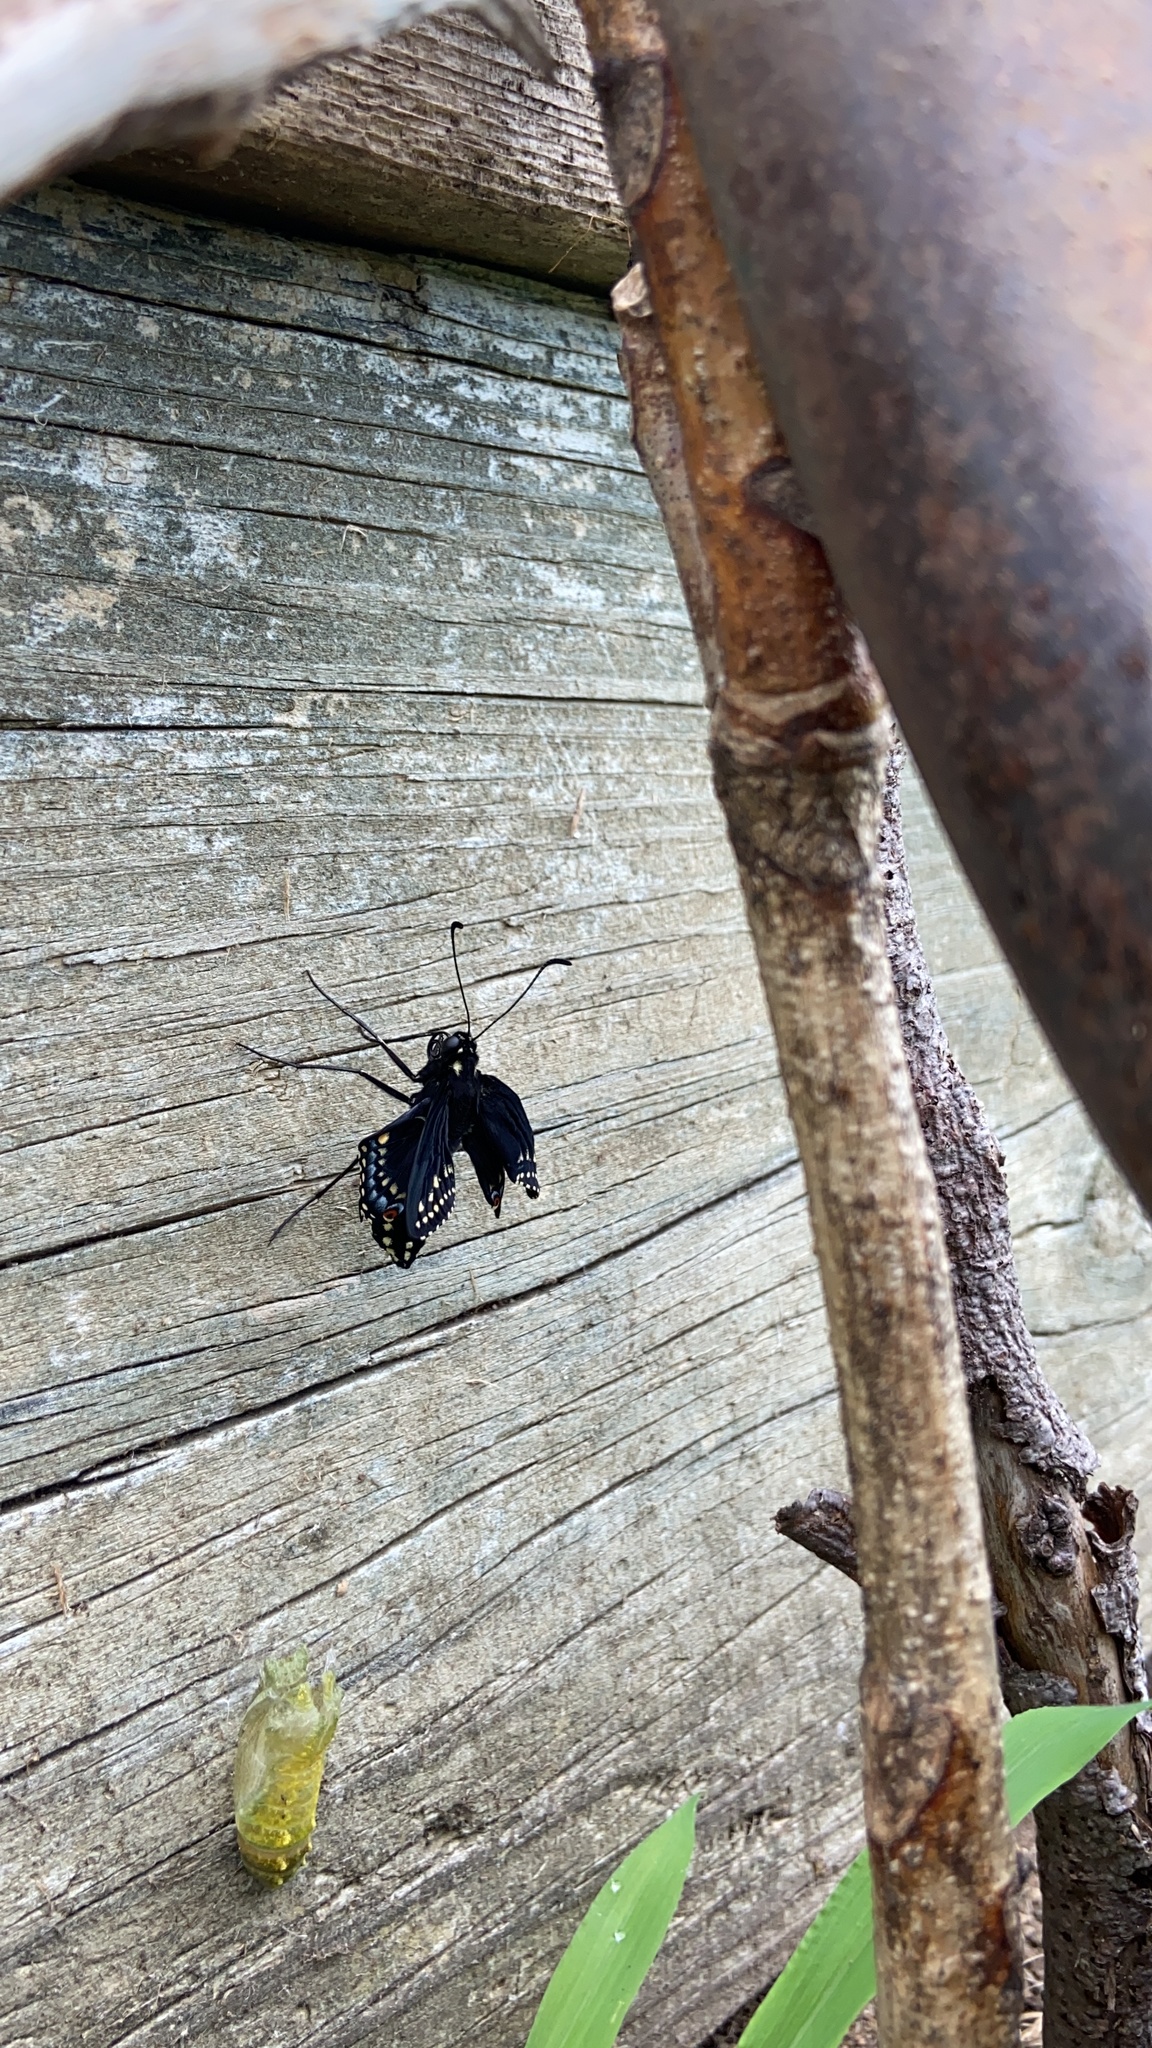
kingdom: Animalia
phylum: Arthropoda
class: Insecta
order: Lepidoptera
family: Papilionidae
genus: Papilio
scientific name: Papilio polyxenes
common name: Black swallowtail
